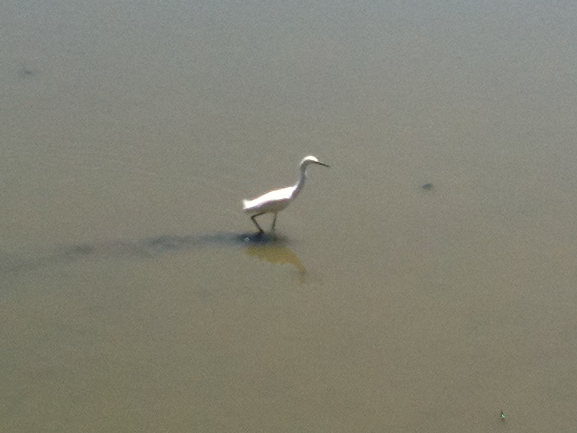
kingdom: Animalia
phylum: Chordata
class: Aves
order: Pelecaniformes
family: Ardeidae
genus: Egretta
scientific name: Egretta thula
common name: Snowy egret
